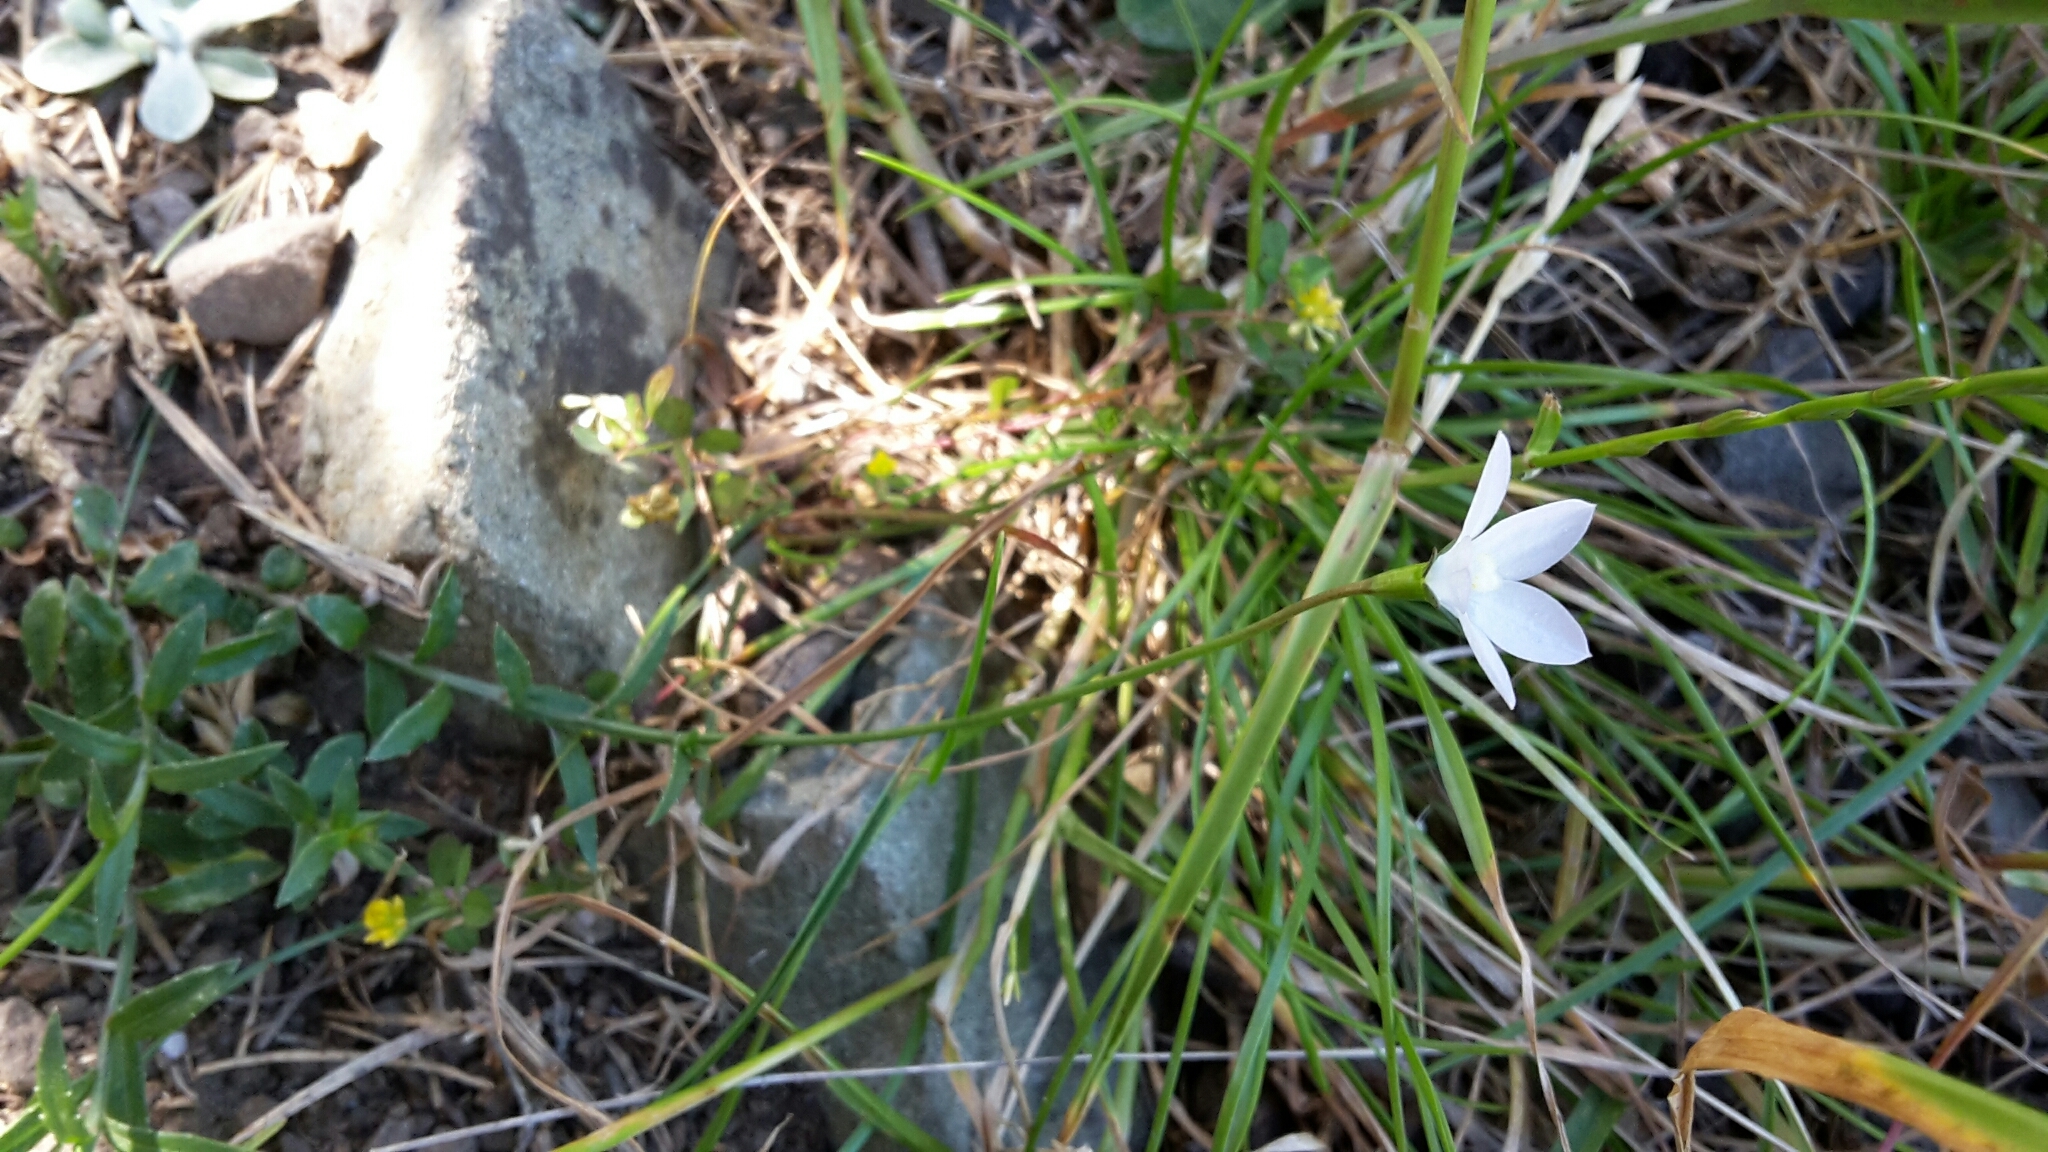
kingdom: Plantae
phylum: Tracheophyta
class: Magnoliopsida
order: Asterales
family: Campanulaceae
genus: Wahlenbergia
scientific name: Wahlenbergia ramosa
